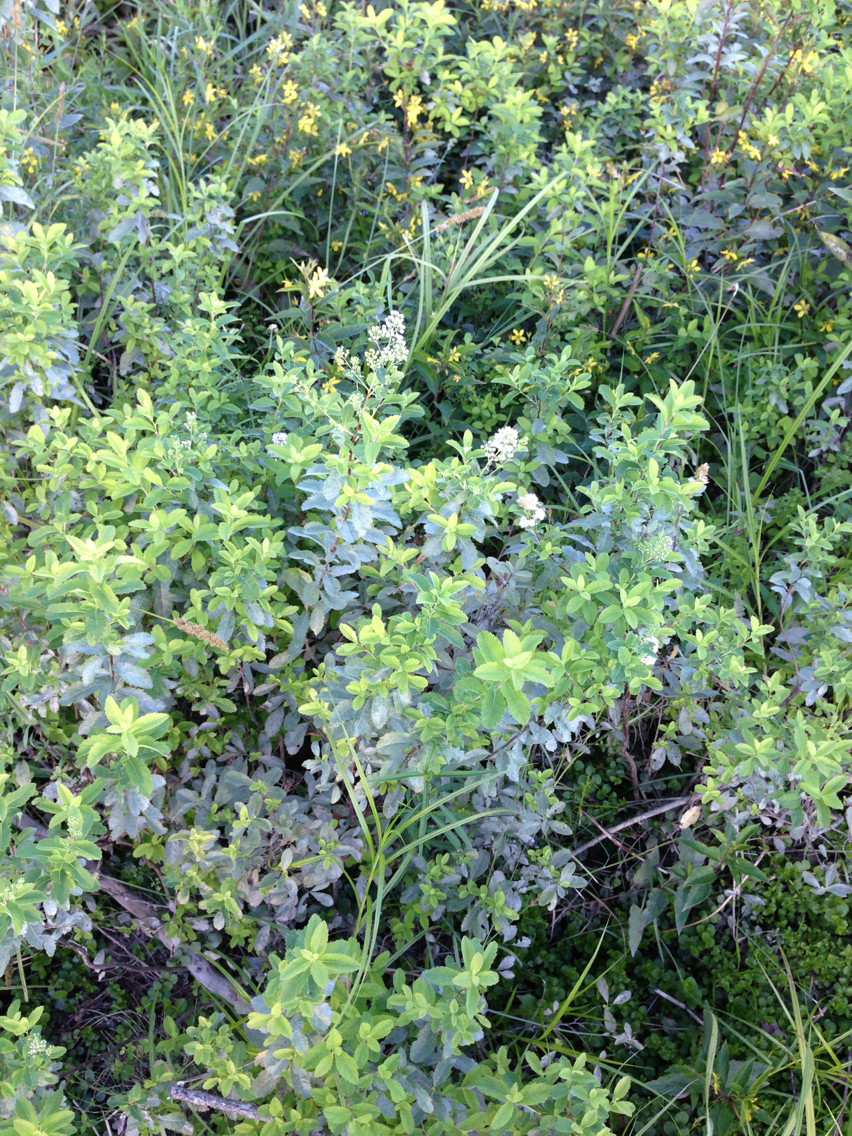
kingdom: Plantae
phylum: Tracheophyta
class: Magnoliopsida
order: Rosales
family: Rosaceae
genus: Spiraea
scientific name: Spiraea alba
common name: Pale bridewort
